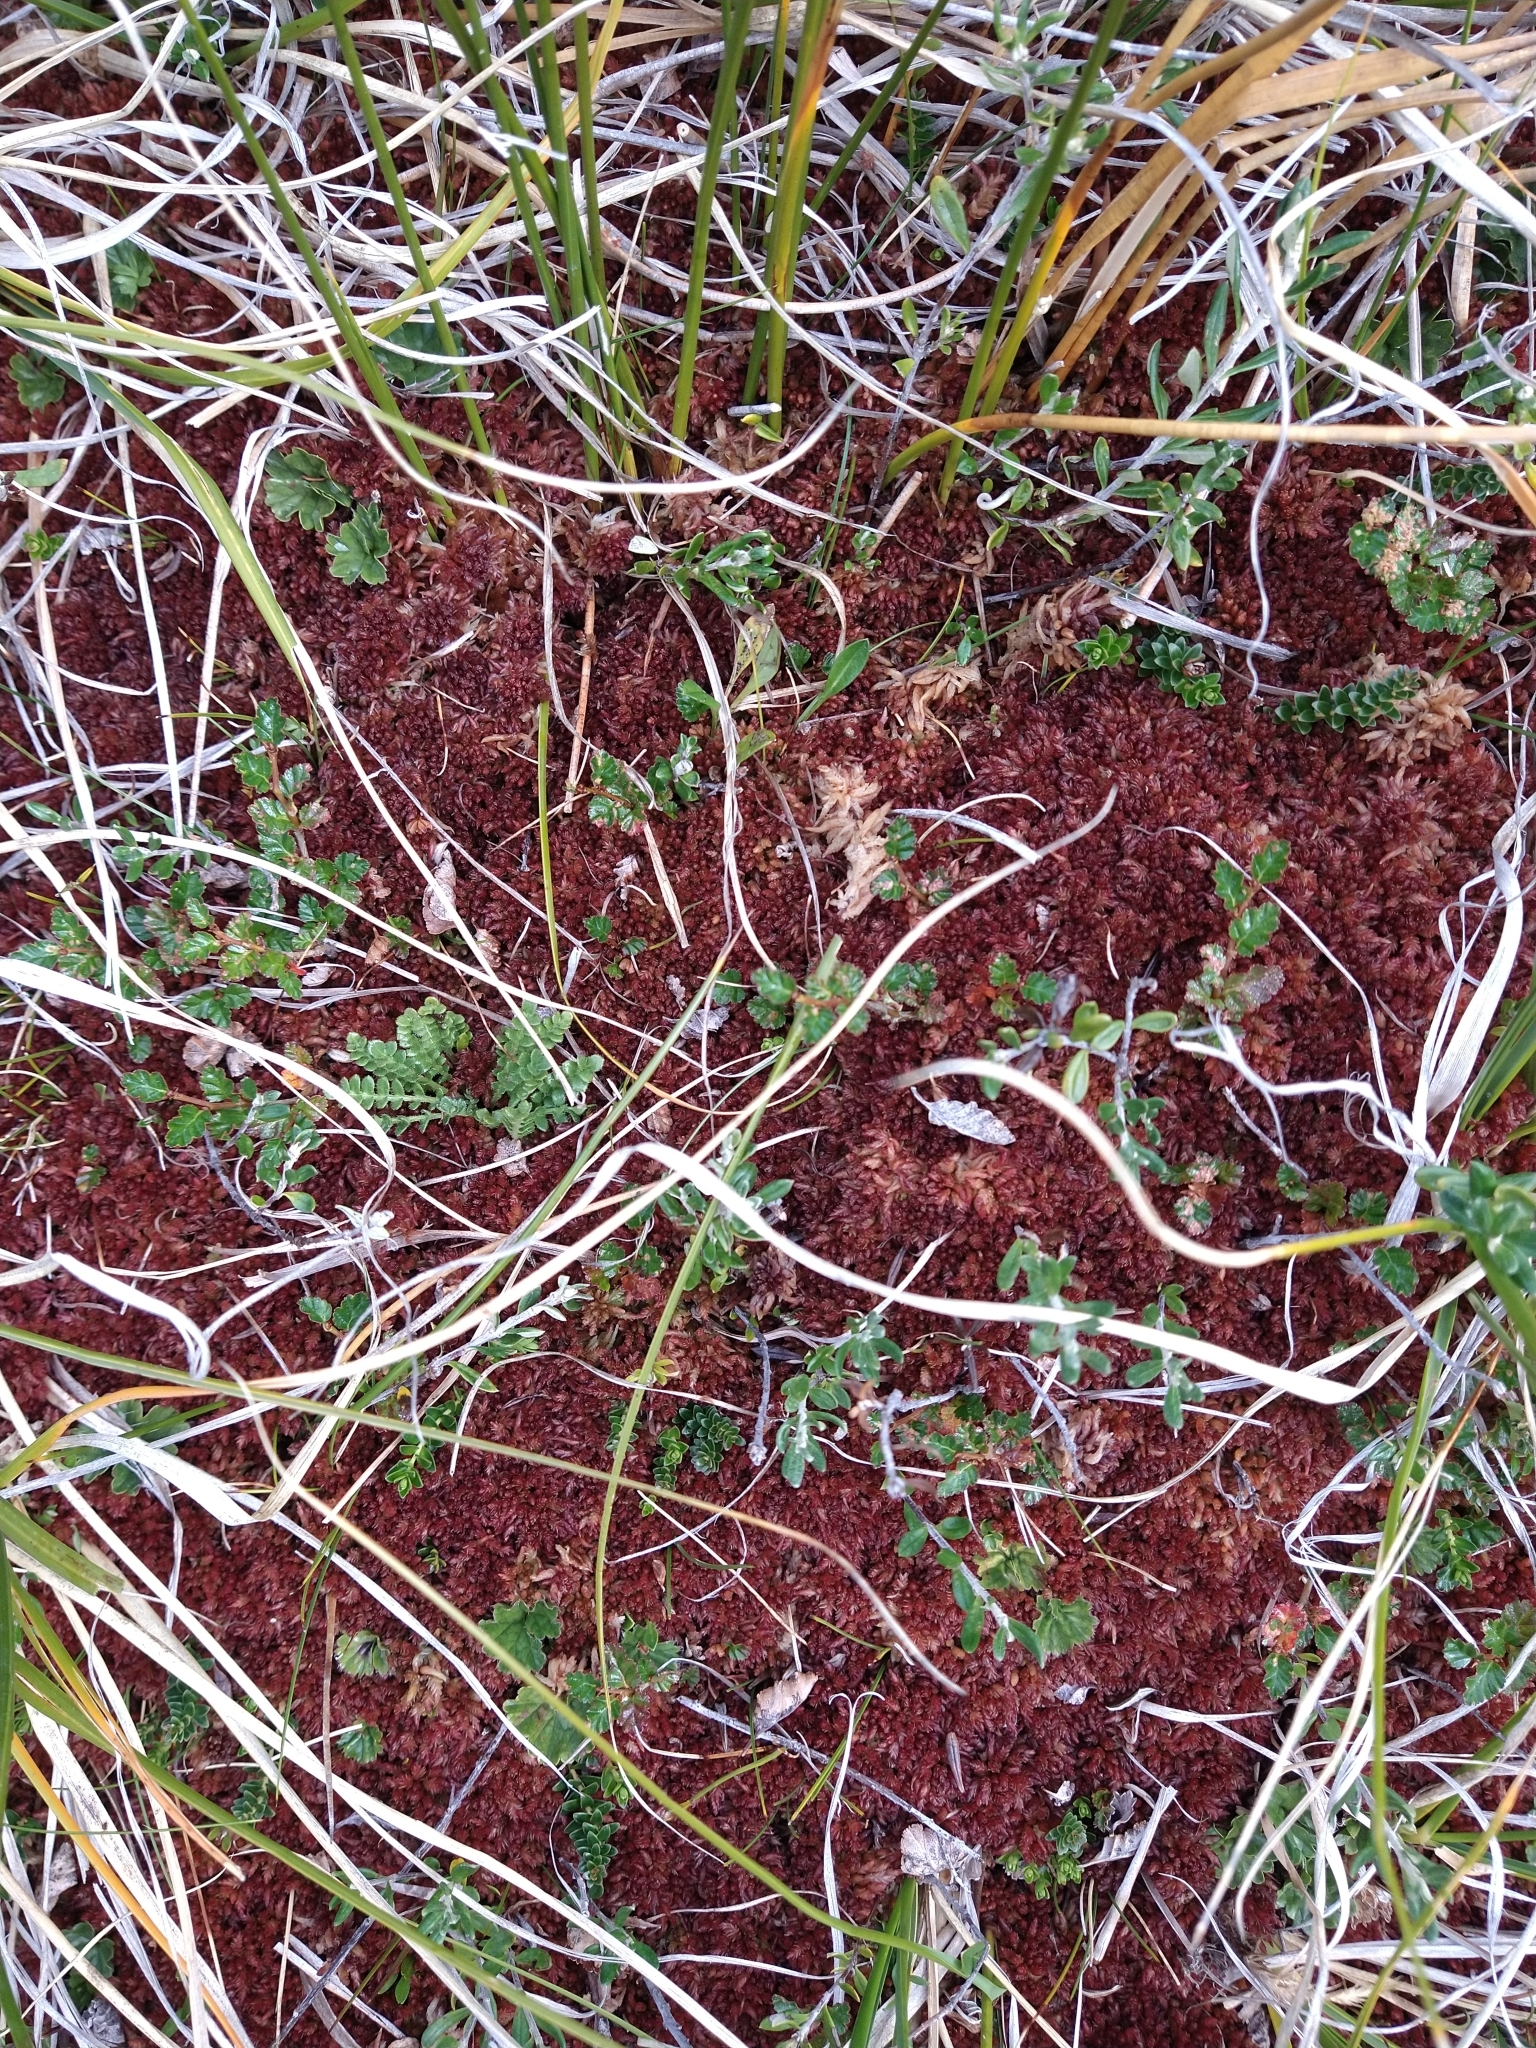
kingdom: Plantae
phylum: Bryophyta
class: Sphagnopsida
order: Sphagnales
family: Sphagnaceae
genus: Sphagnum
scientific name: Sphagnum magellanicum
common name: Magellan's peat moss
